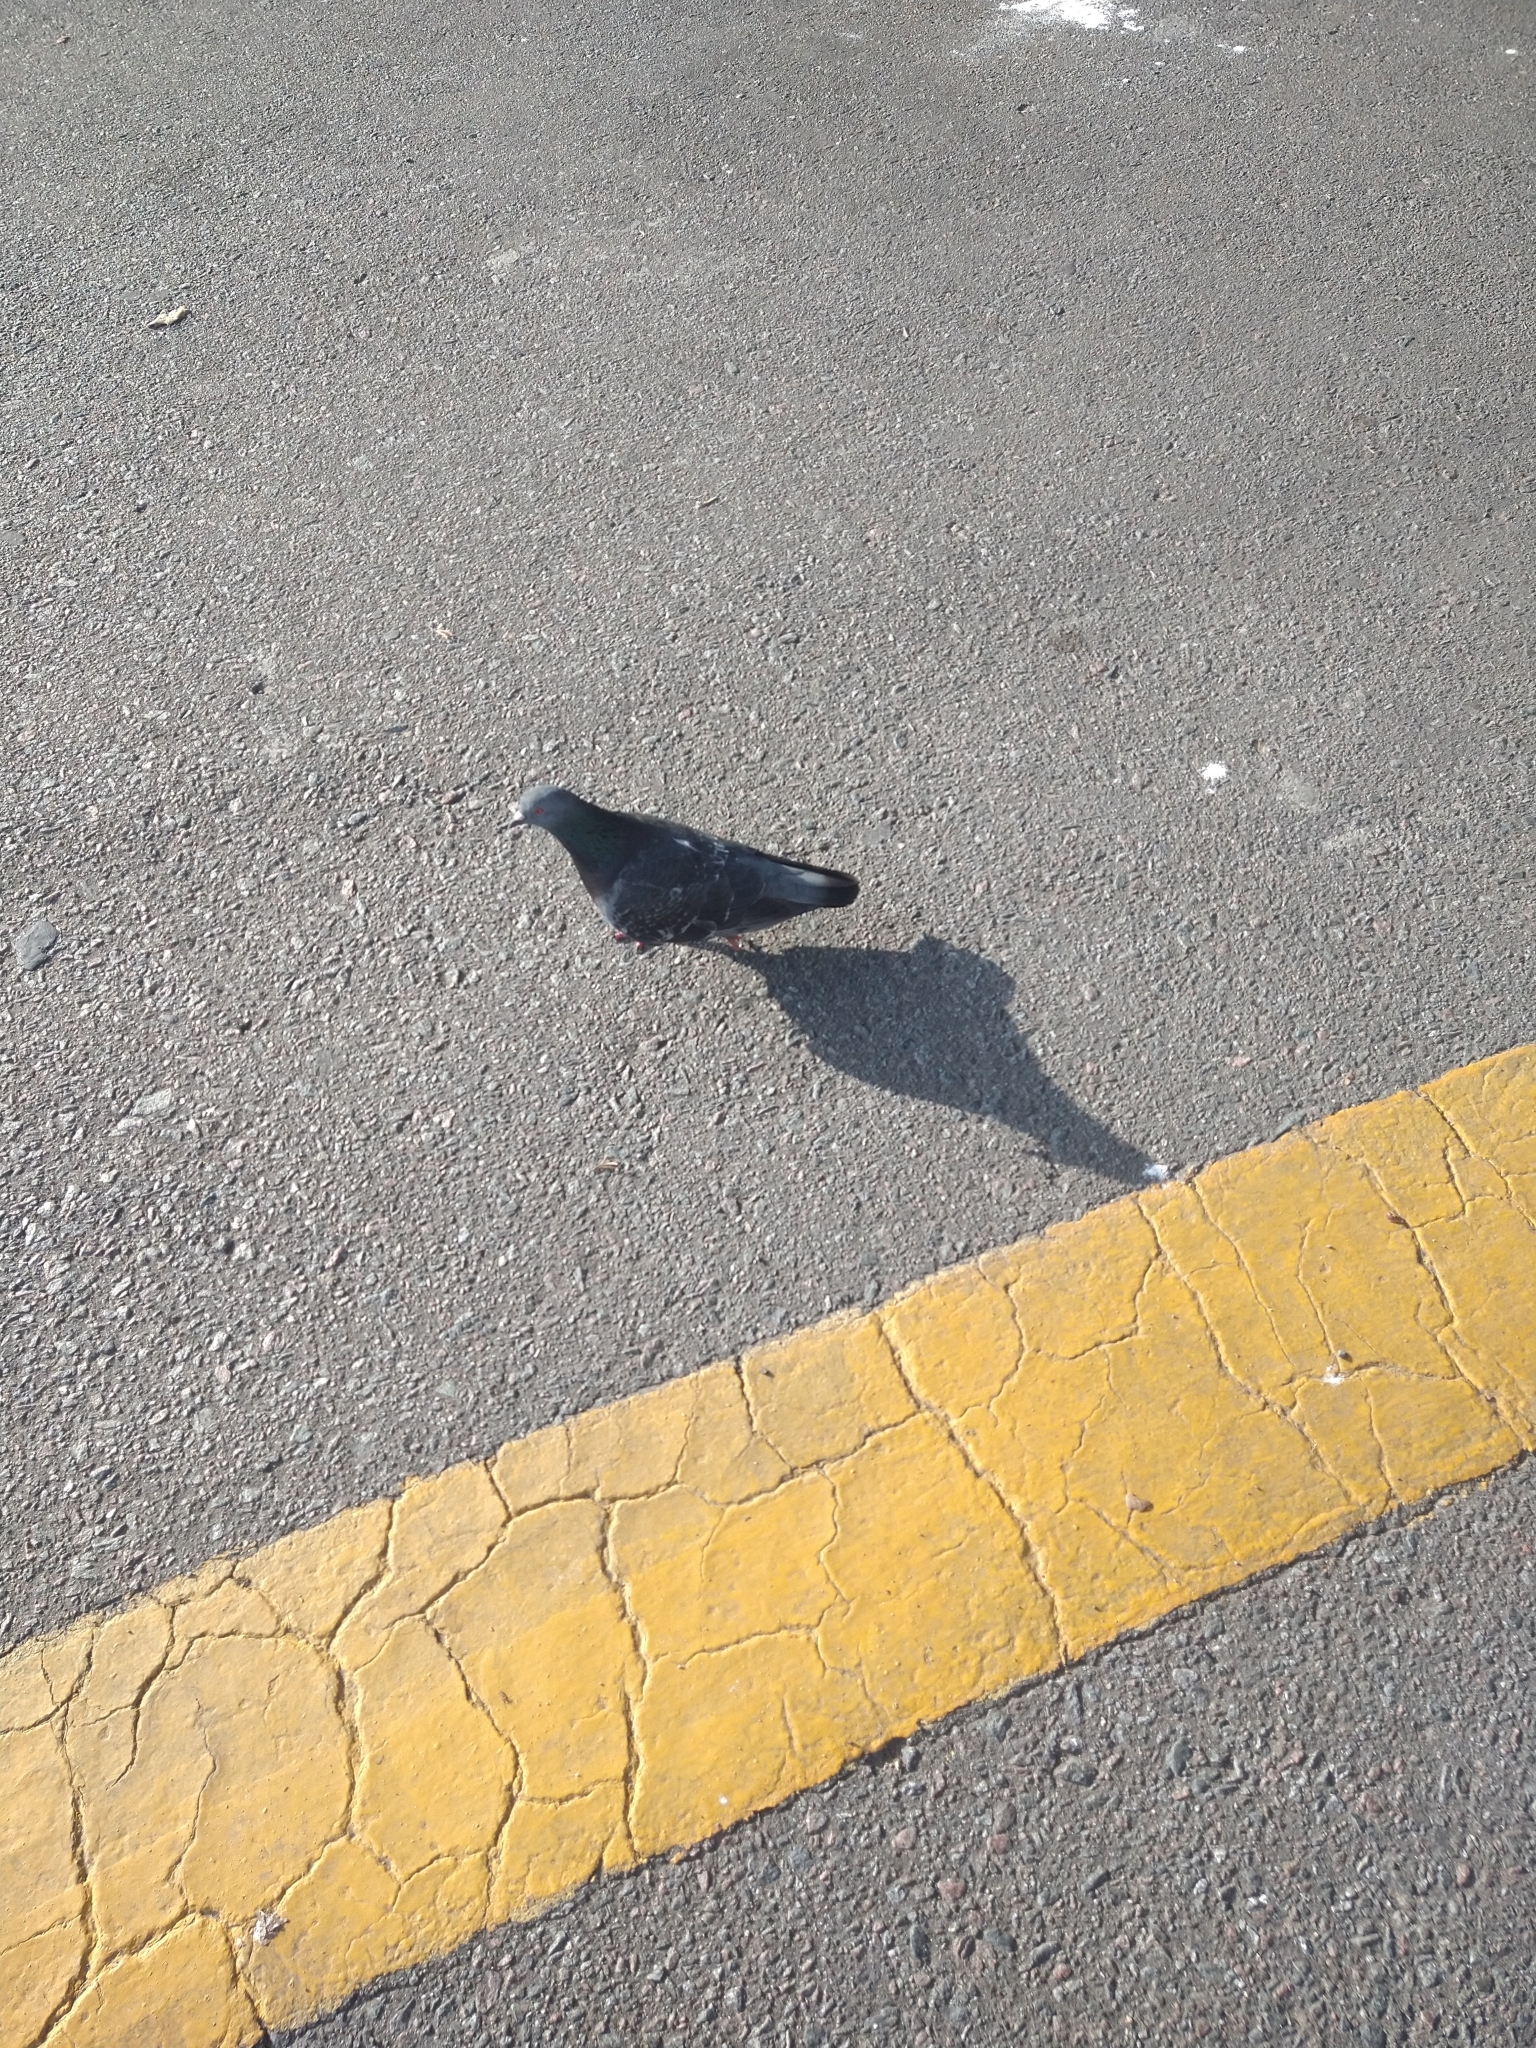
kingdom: Animalia
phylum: Chordata
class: Aves
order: Columbiformes
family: Columbidae
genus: Columba
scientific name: Columba livia
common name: Rock pigeon
